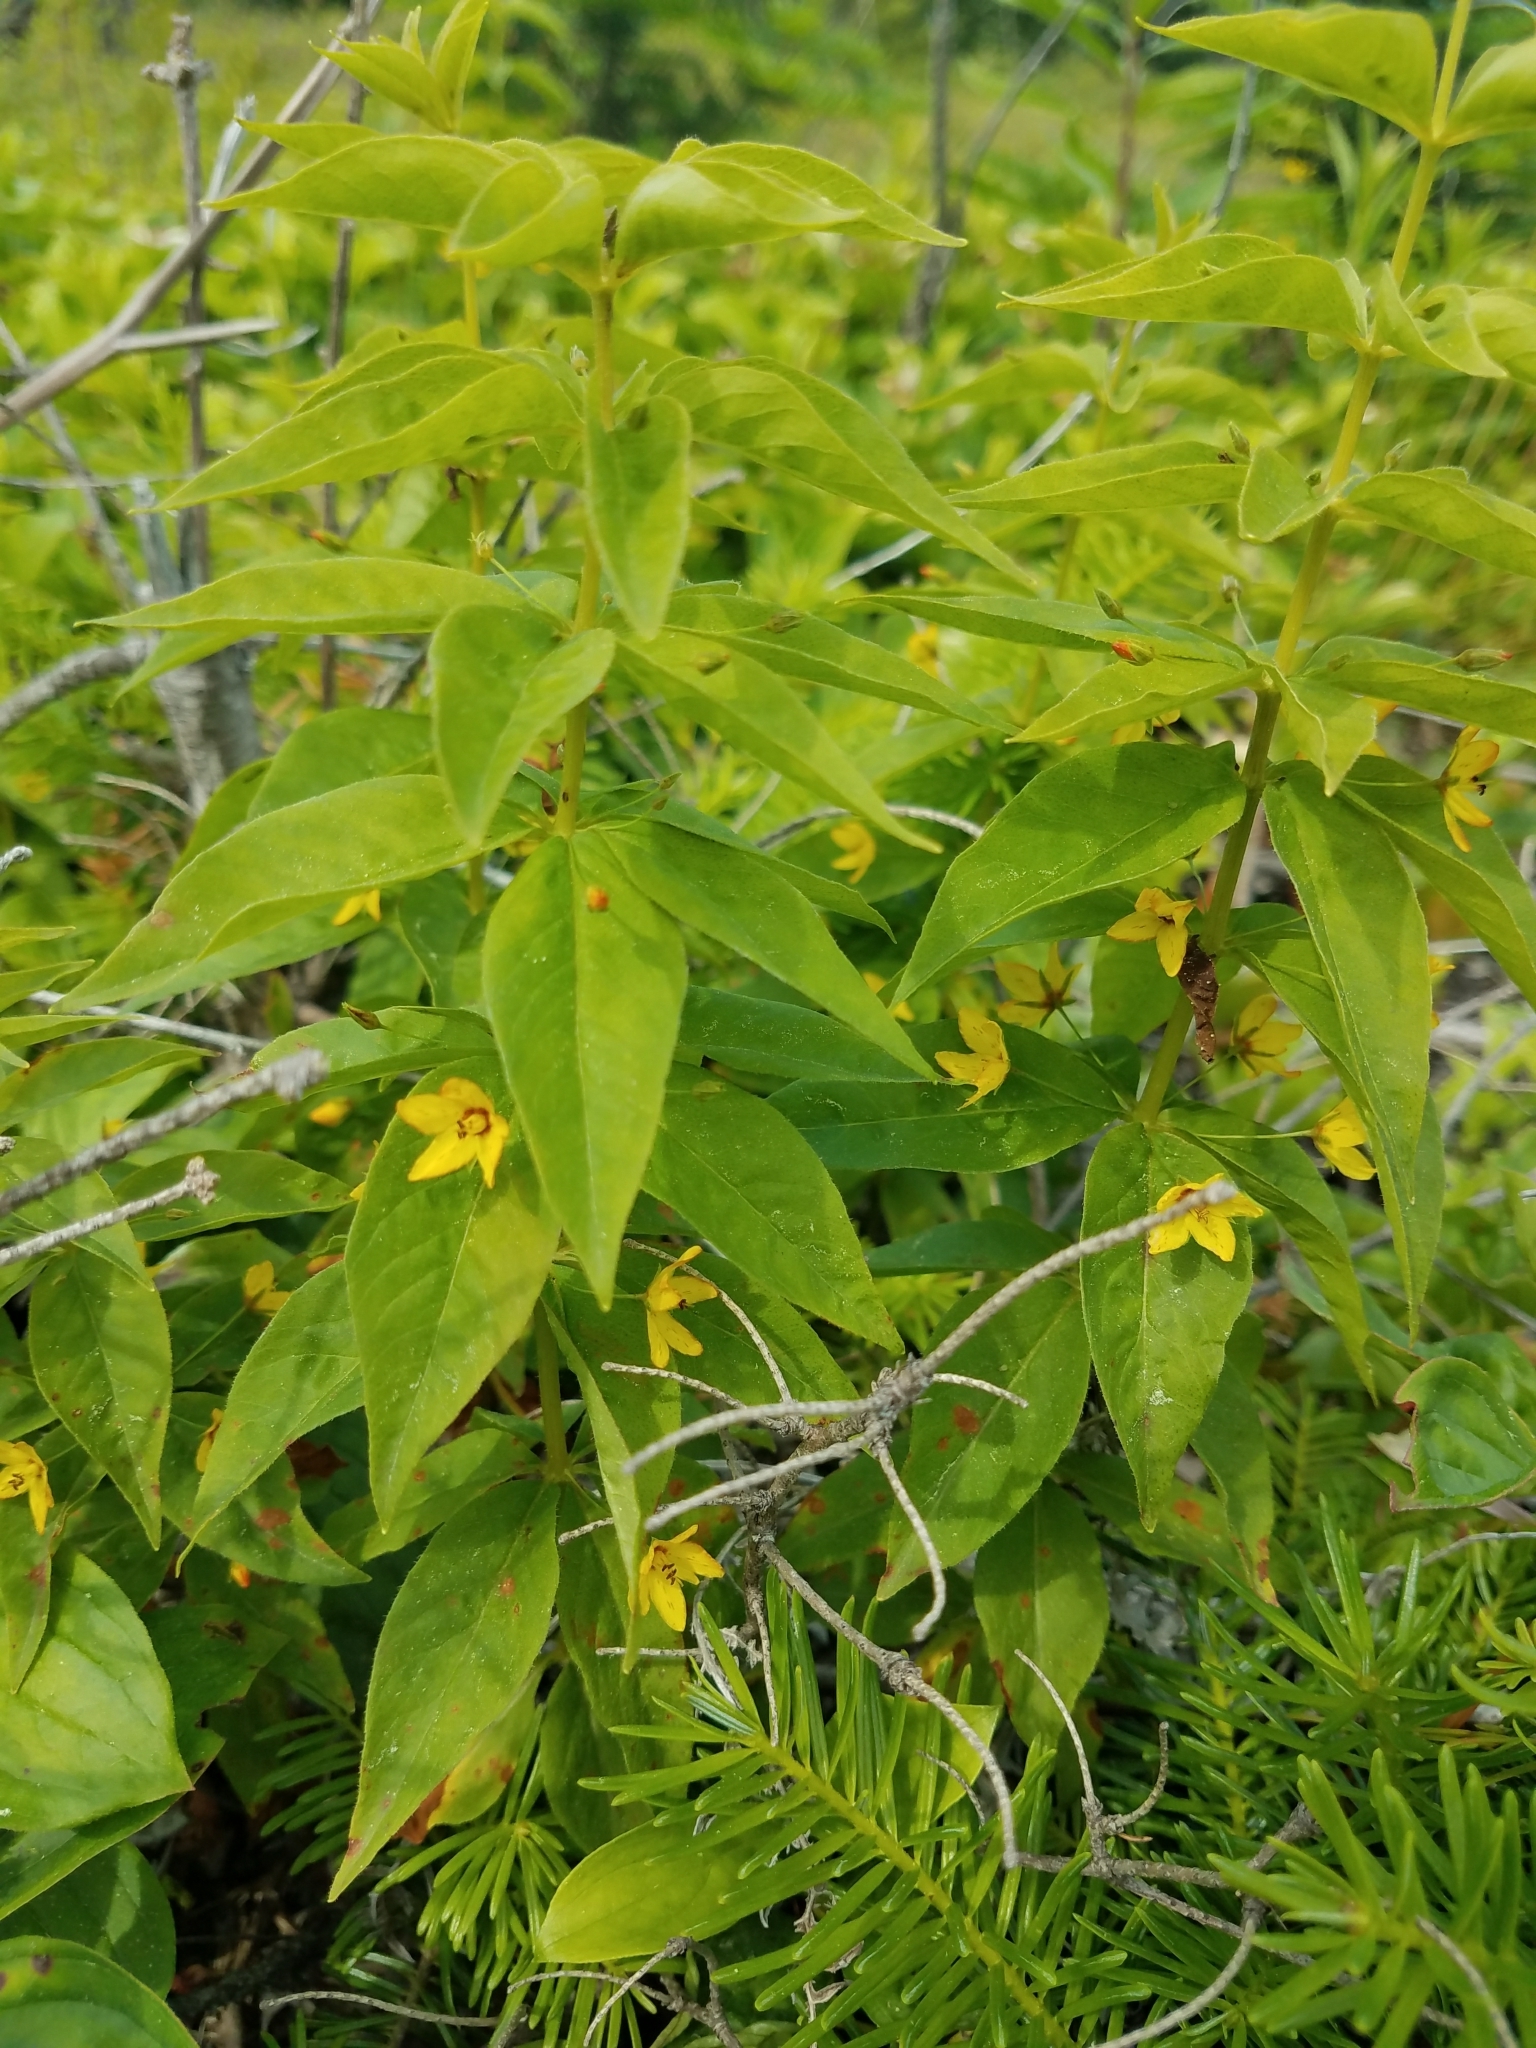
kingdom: Plantae
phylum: Tracheophyta
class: Magnoliopsida
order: Ericales
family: Primulaceae
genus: Lysimachia
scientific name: Lysimachia quadrifolia
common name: Whorled loosestrife
